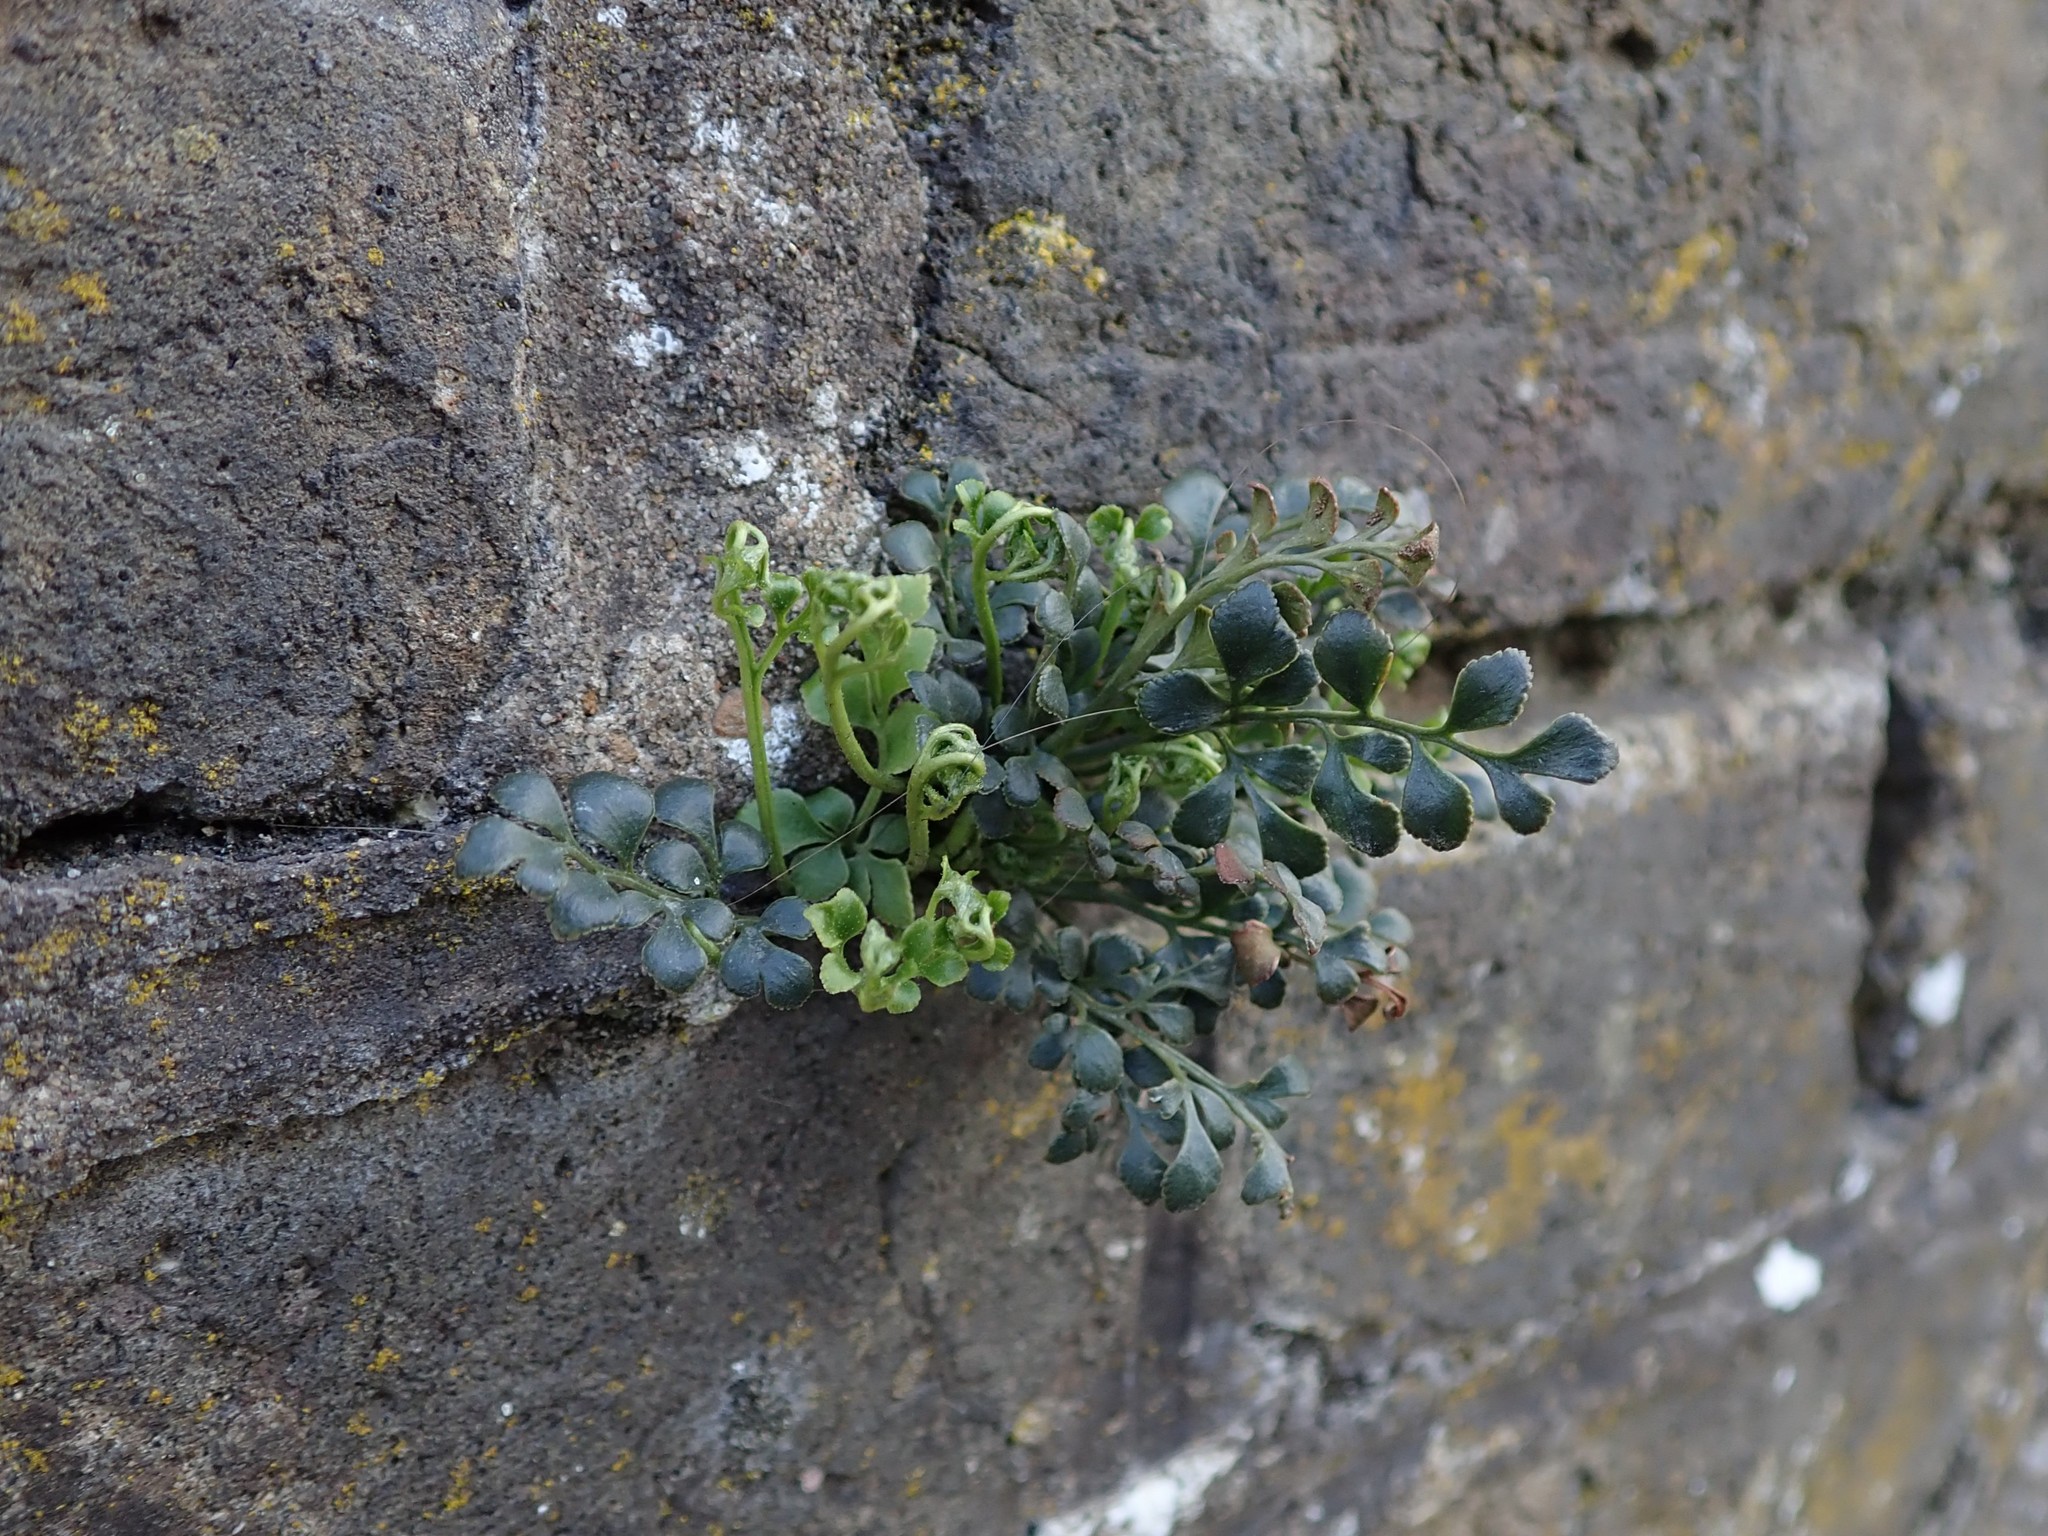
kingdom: Plantae
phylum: Tracheophyta
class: Polypodiopsida
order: Polypodiales
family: Aspleniaceae
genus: Asplenium
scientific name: Asplenium ruta-muraria
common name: Wall-rue
